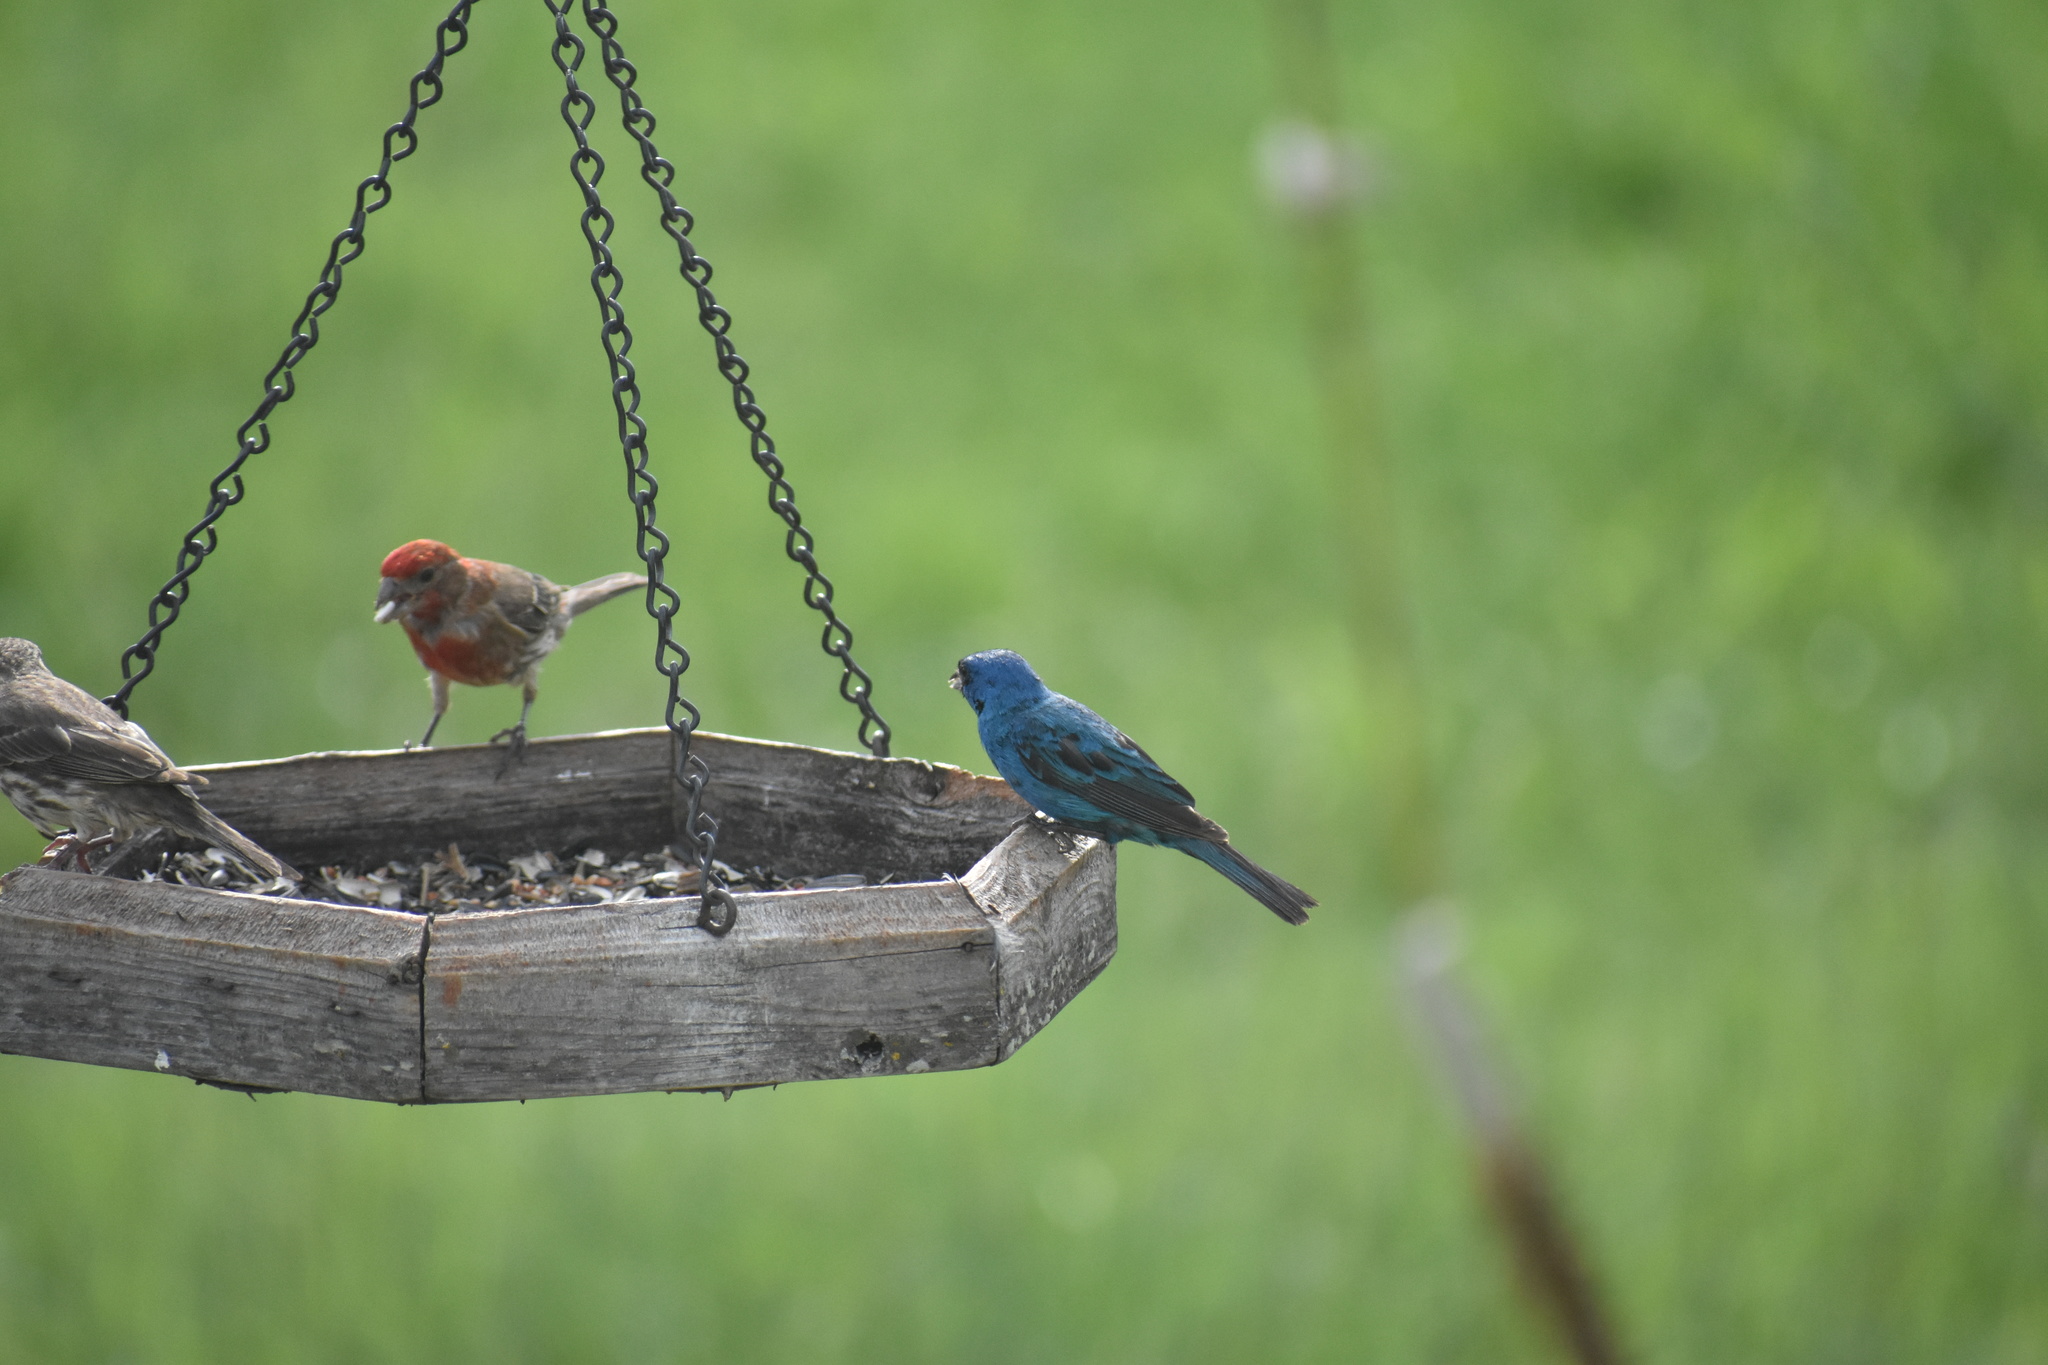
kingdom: Animalia
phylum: Chordata
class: Aves
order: Passeriformes
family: Cardinalidae
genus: Passerina
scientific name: Passerina cyanea
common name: Indigo bunting
